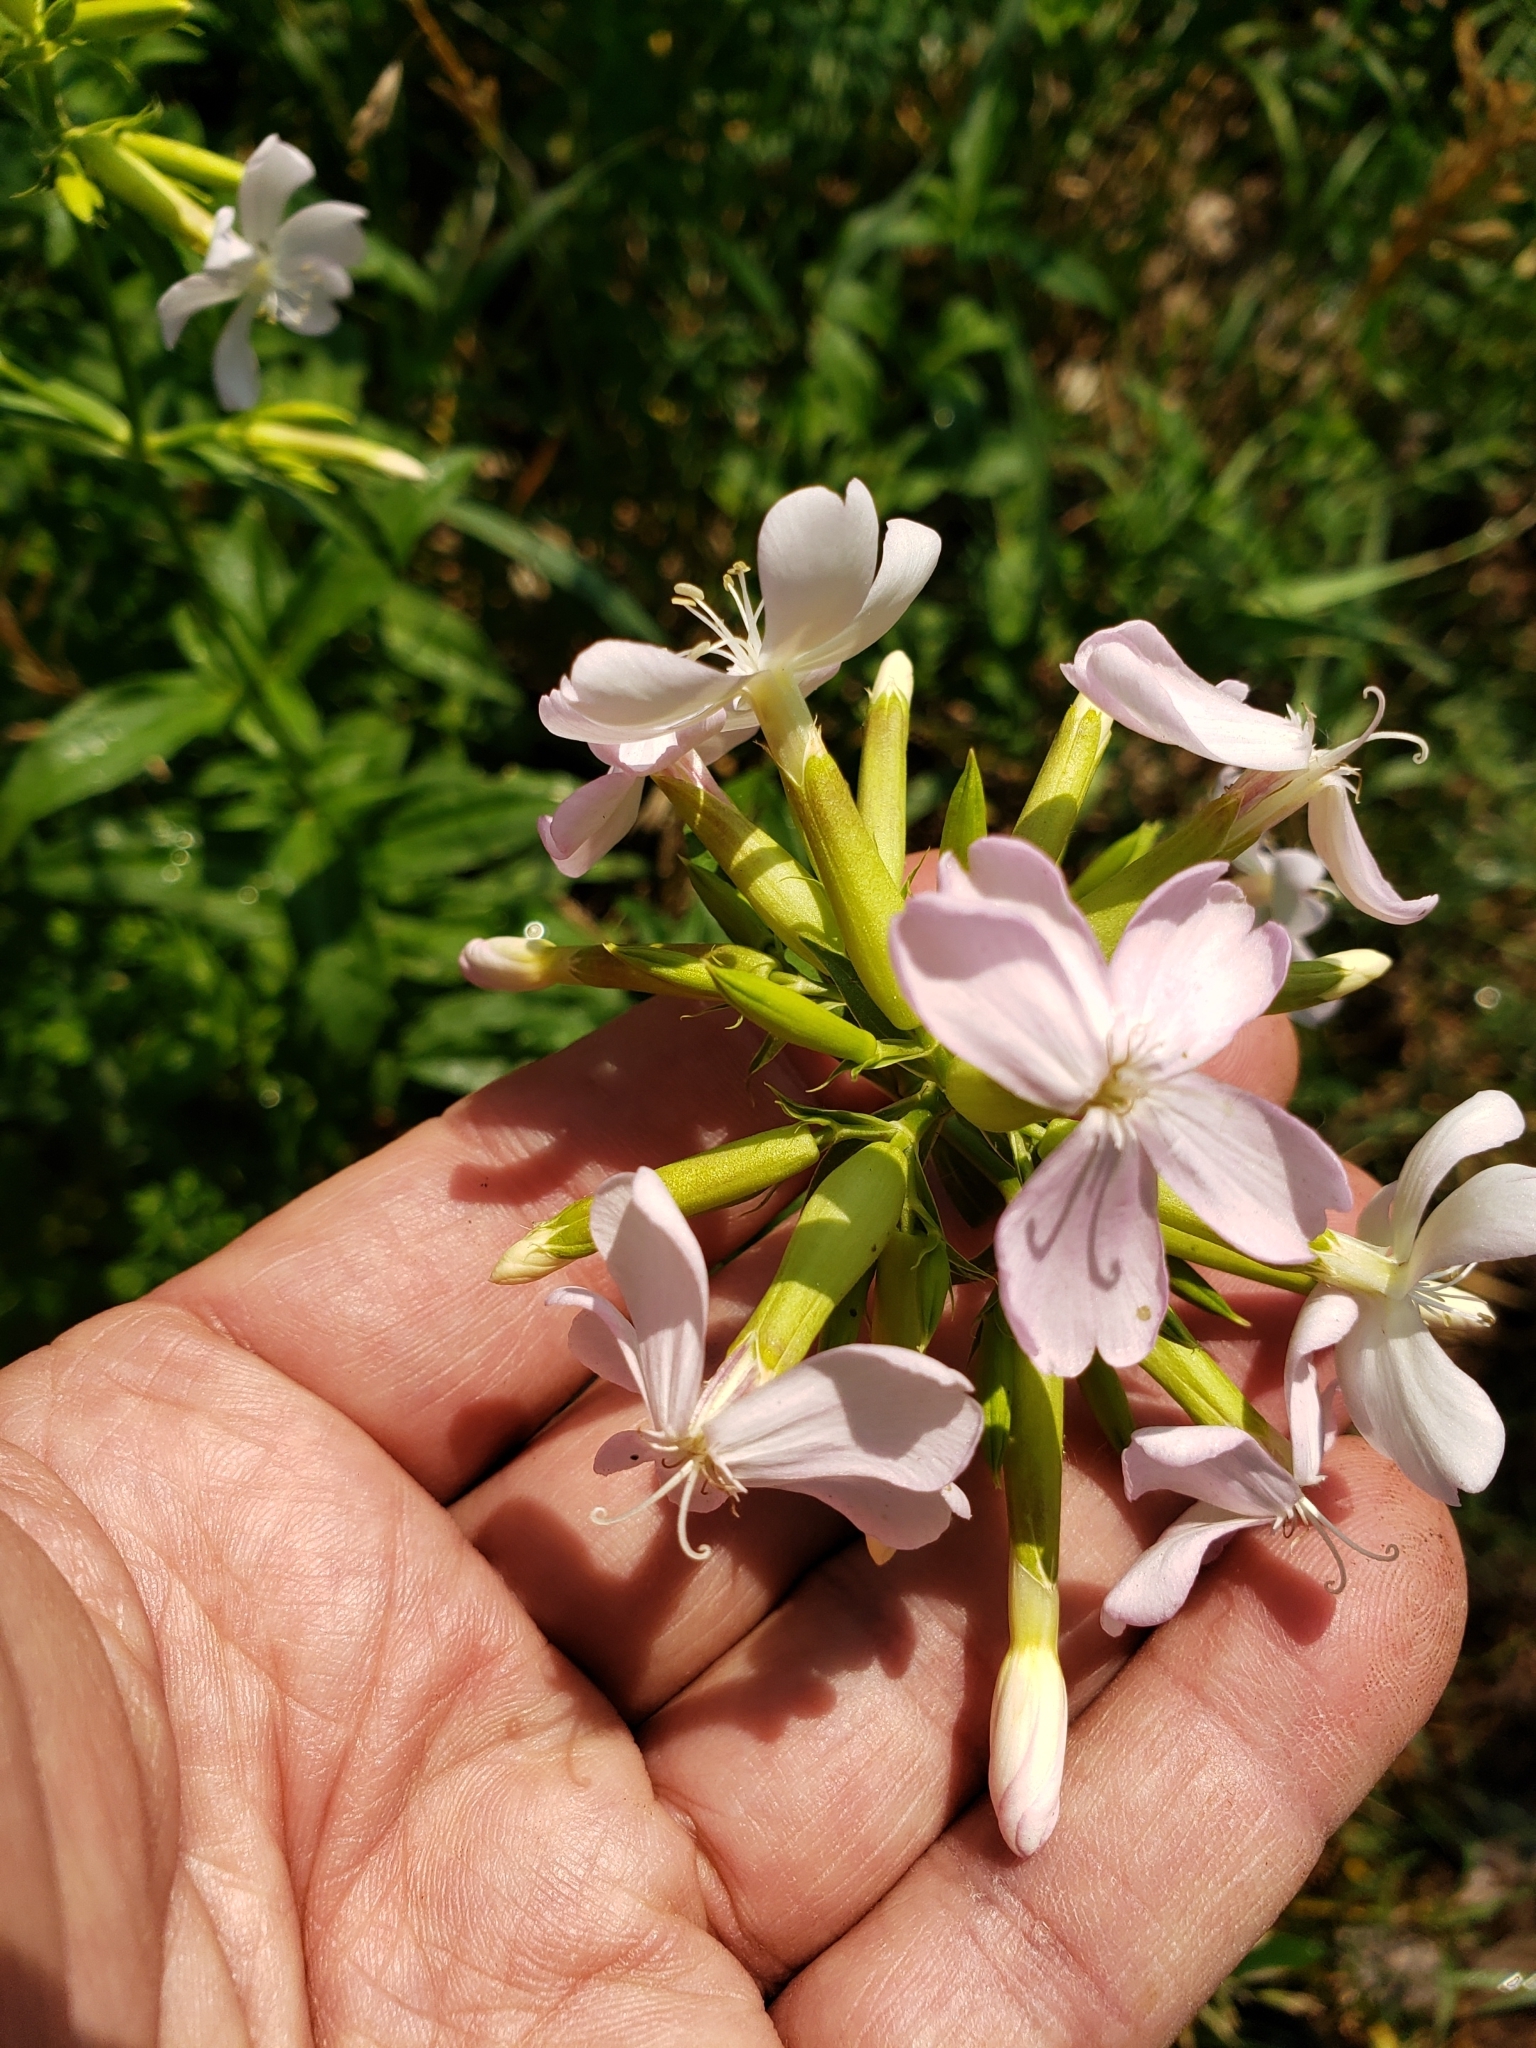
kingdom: Plantae
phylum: Tracheophyta
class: Magnoliopsida
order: Caryophyllales
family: Caryophyllaceae
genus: Saponaria
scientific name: Saponaria officinalis
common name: Soapwort
